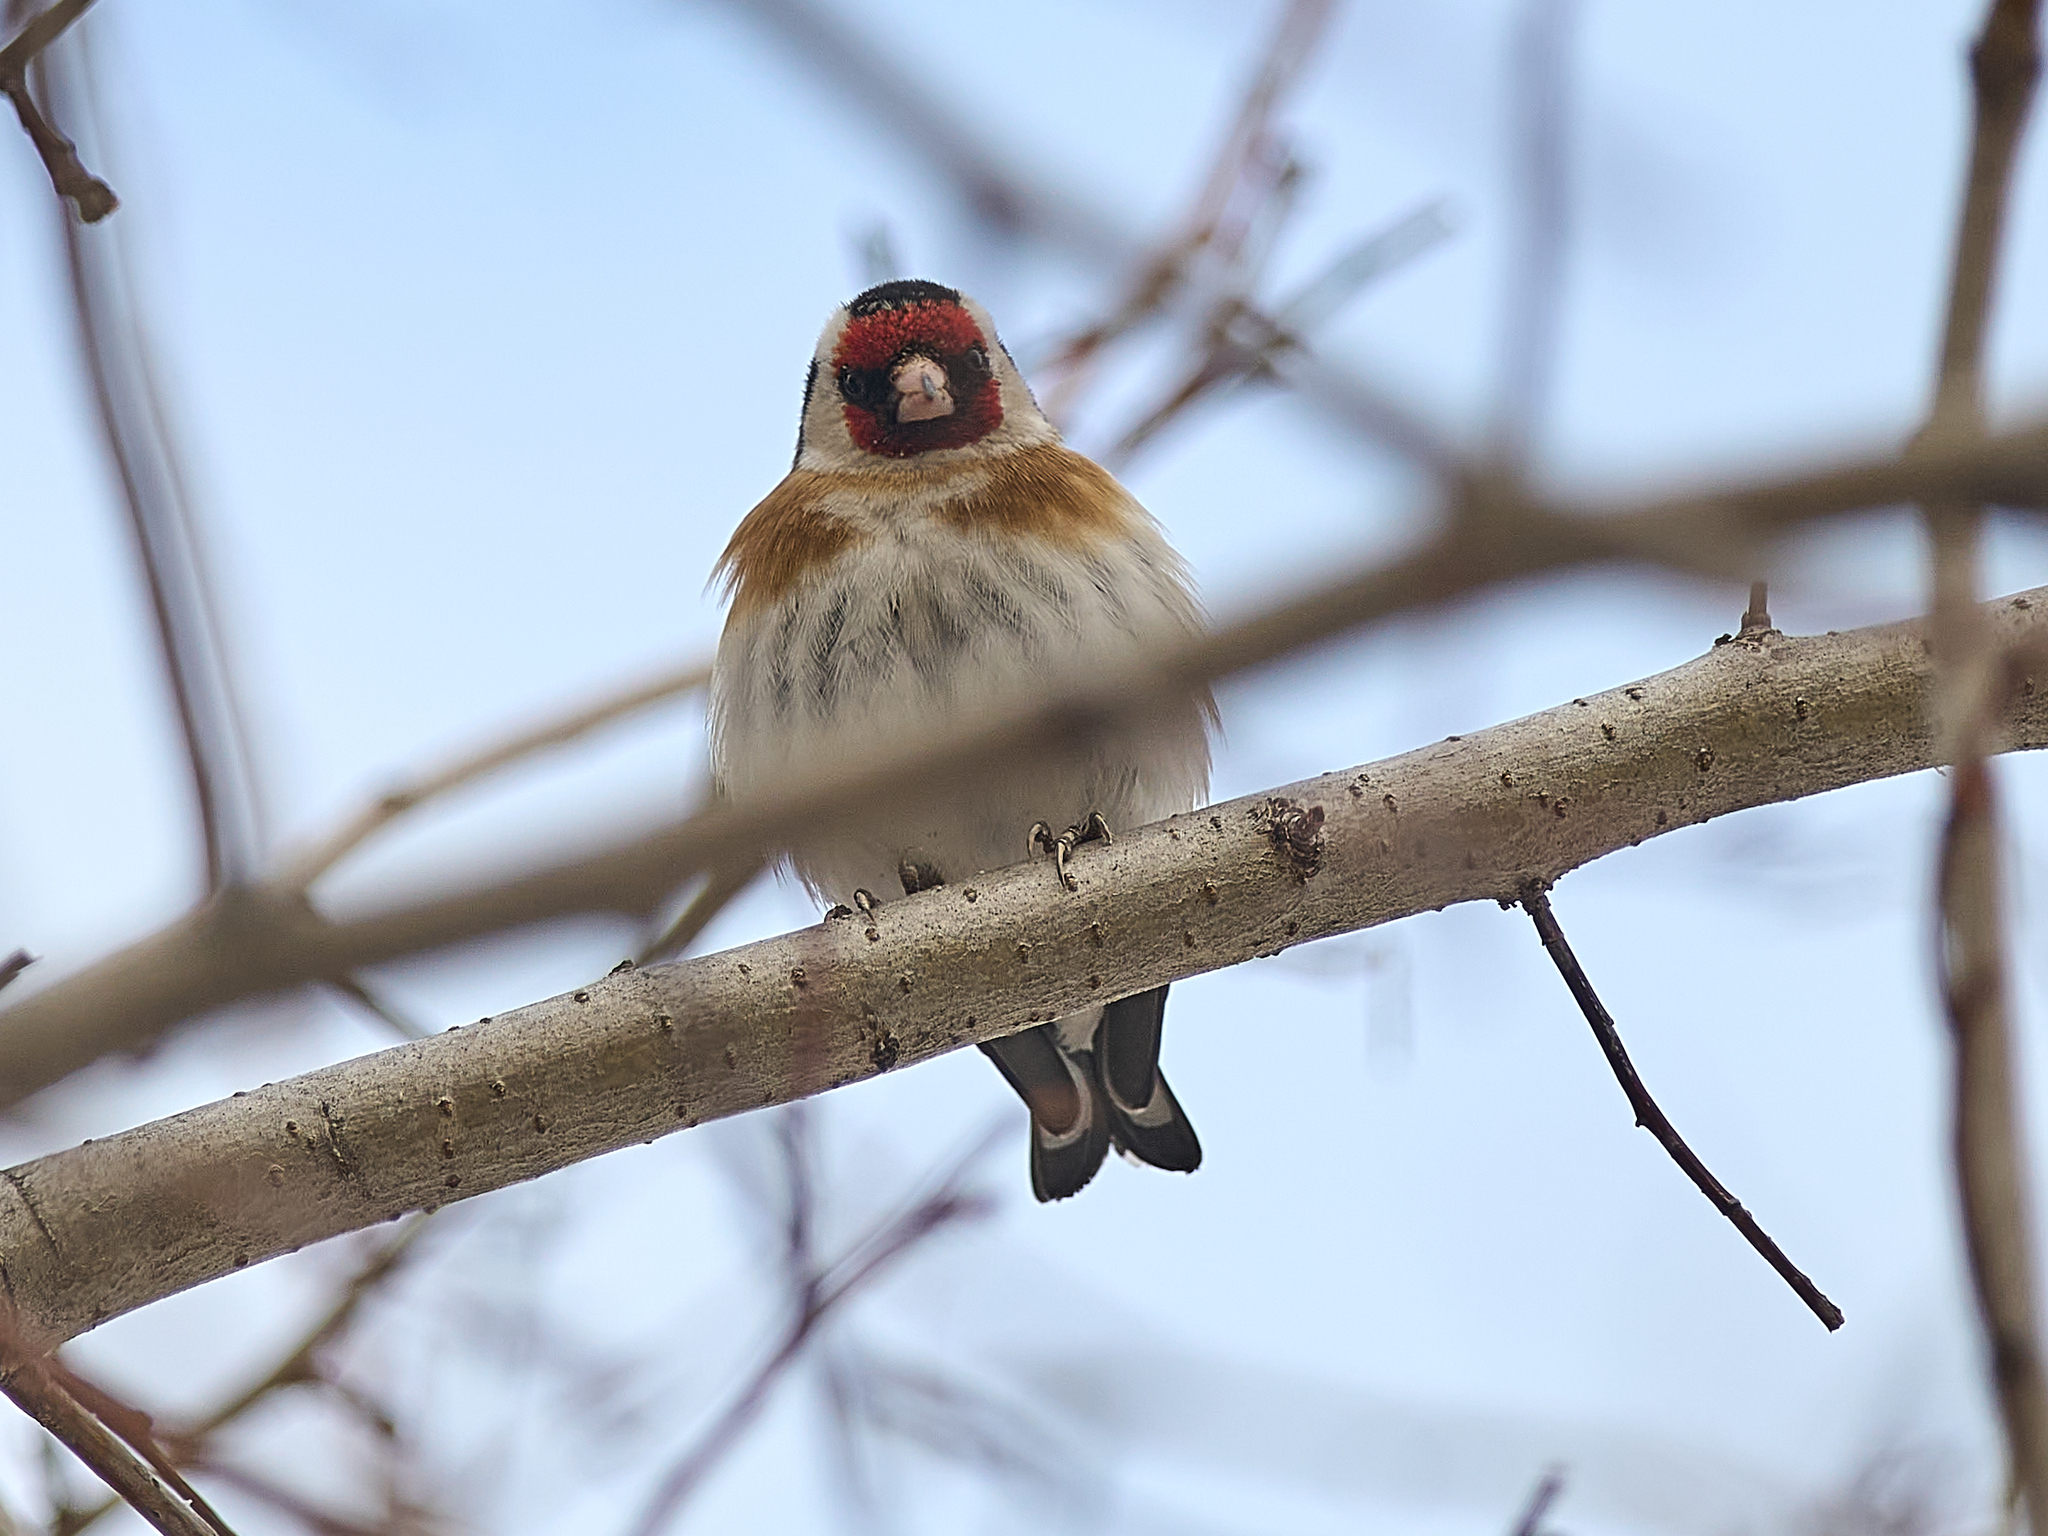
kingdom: Animalia
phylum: Chordata
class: Aves
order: Passeriformes
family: Fringillidae
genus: Carduelis
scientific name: Carduelis carduelis
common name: European goldfinch
